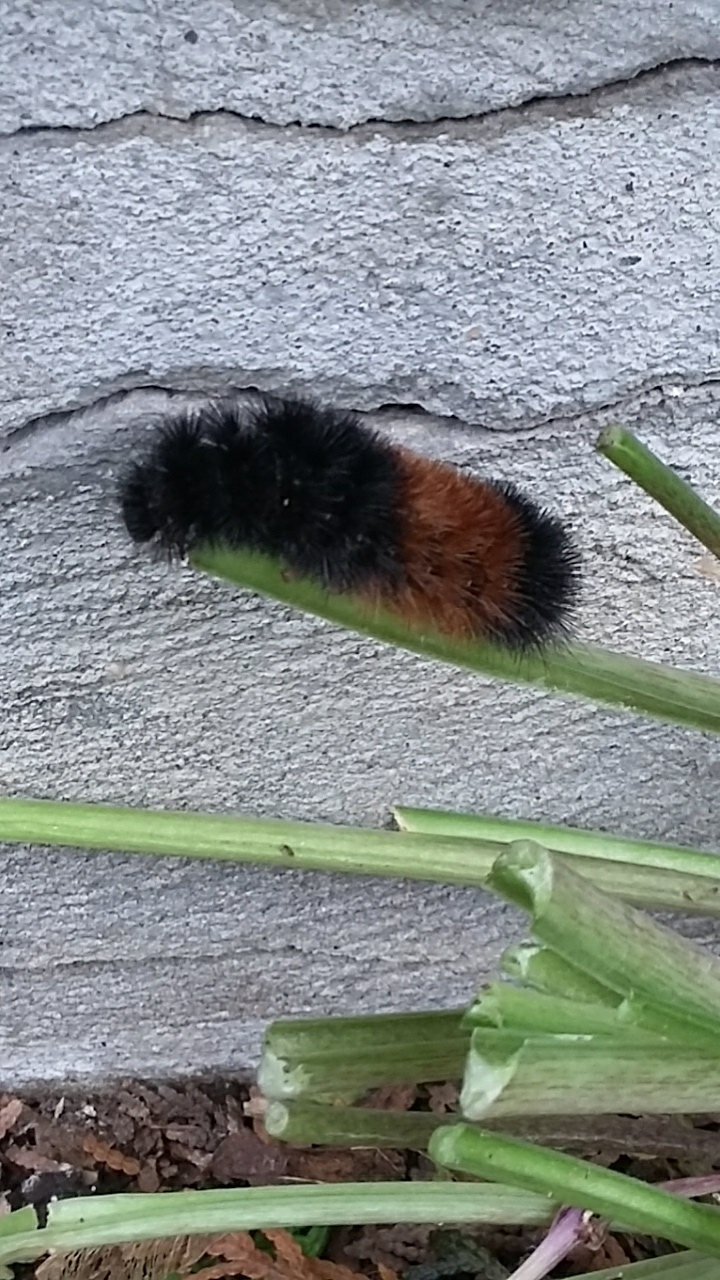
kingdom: Animalia
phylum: Arthropoda
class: Insecta
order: Lepidoptera
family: Erebidae
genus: Pyrrharctia
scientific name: Pyrrharctia isabella
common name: Isabella tiger moth
